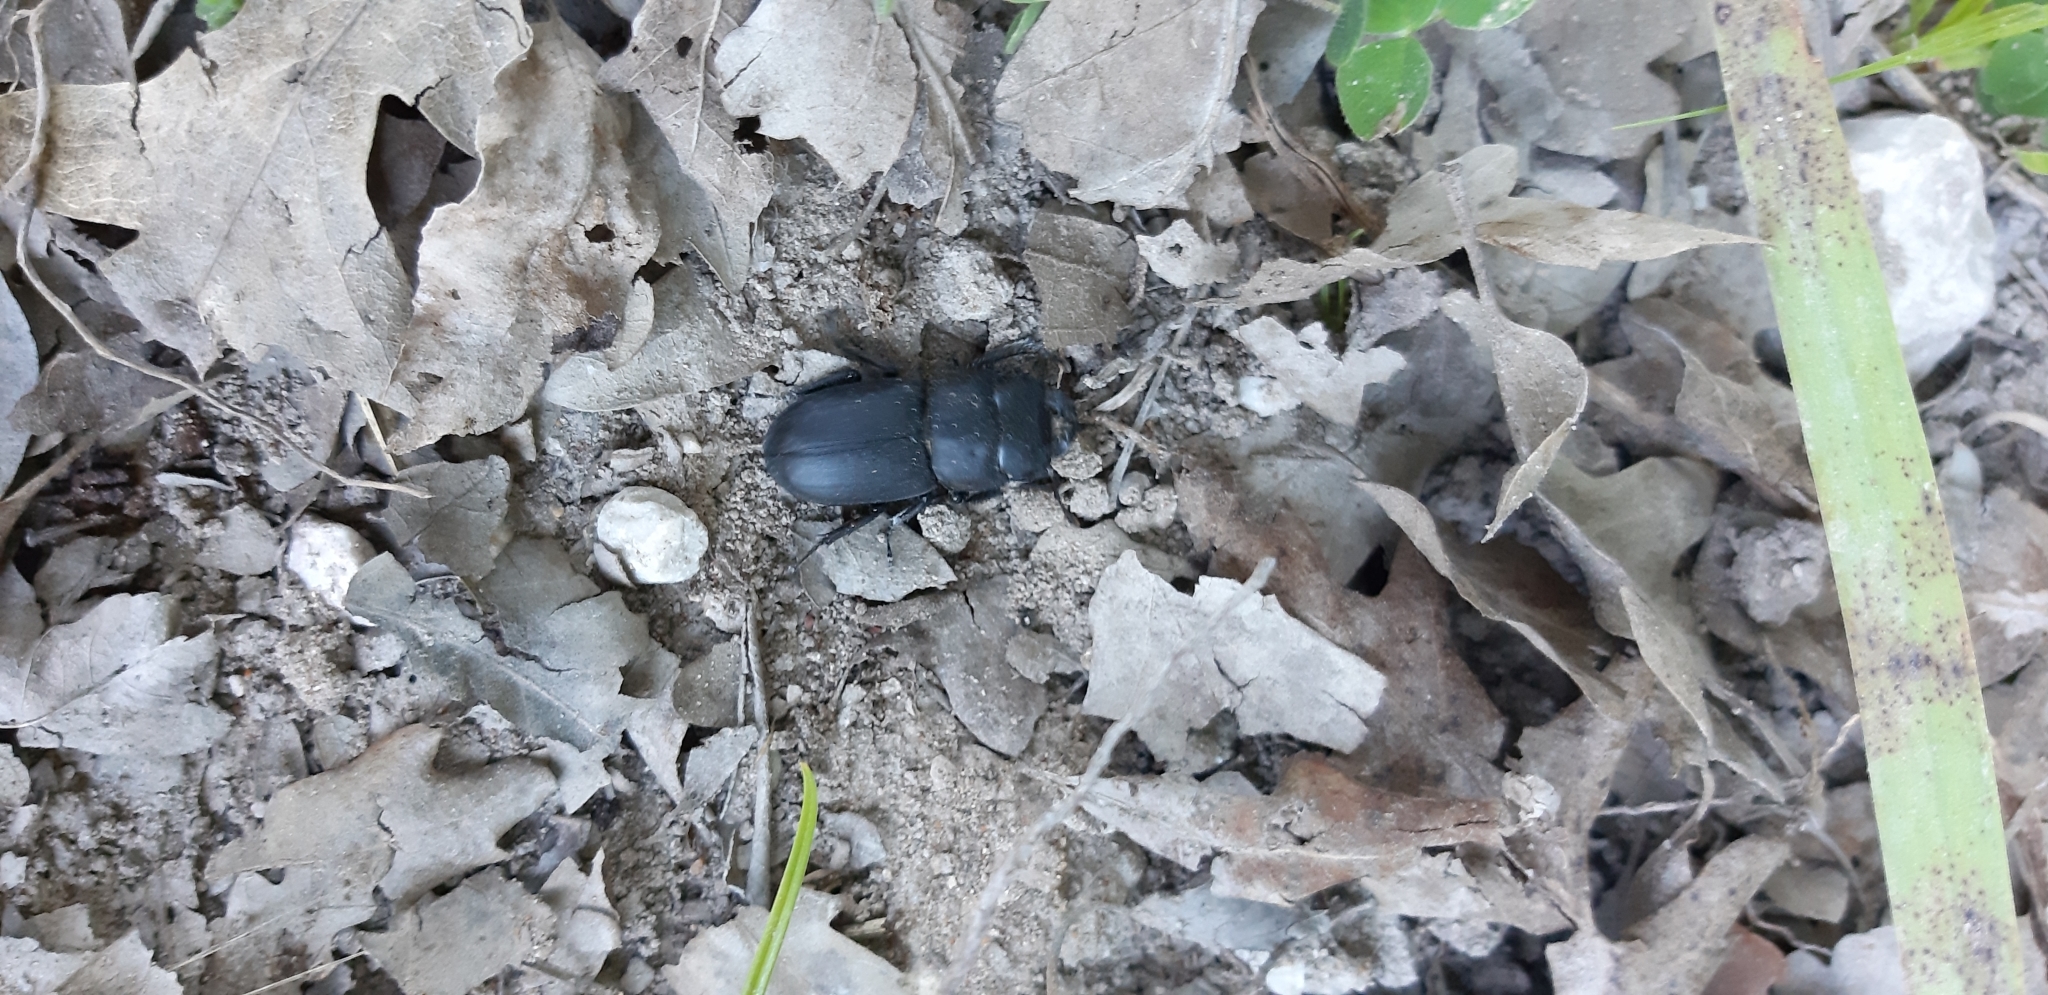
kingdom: Animalia
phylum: Arthropoda
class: Insecta
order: Coleoptera
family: Lucanidae
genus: Dorcus
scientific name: Dorcus parallelipipedus
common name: Lesser stag beetle
